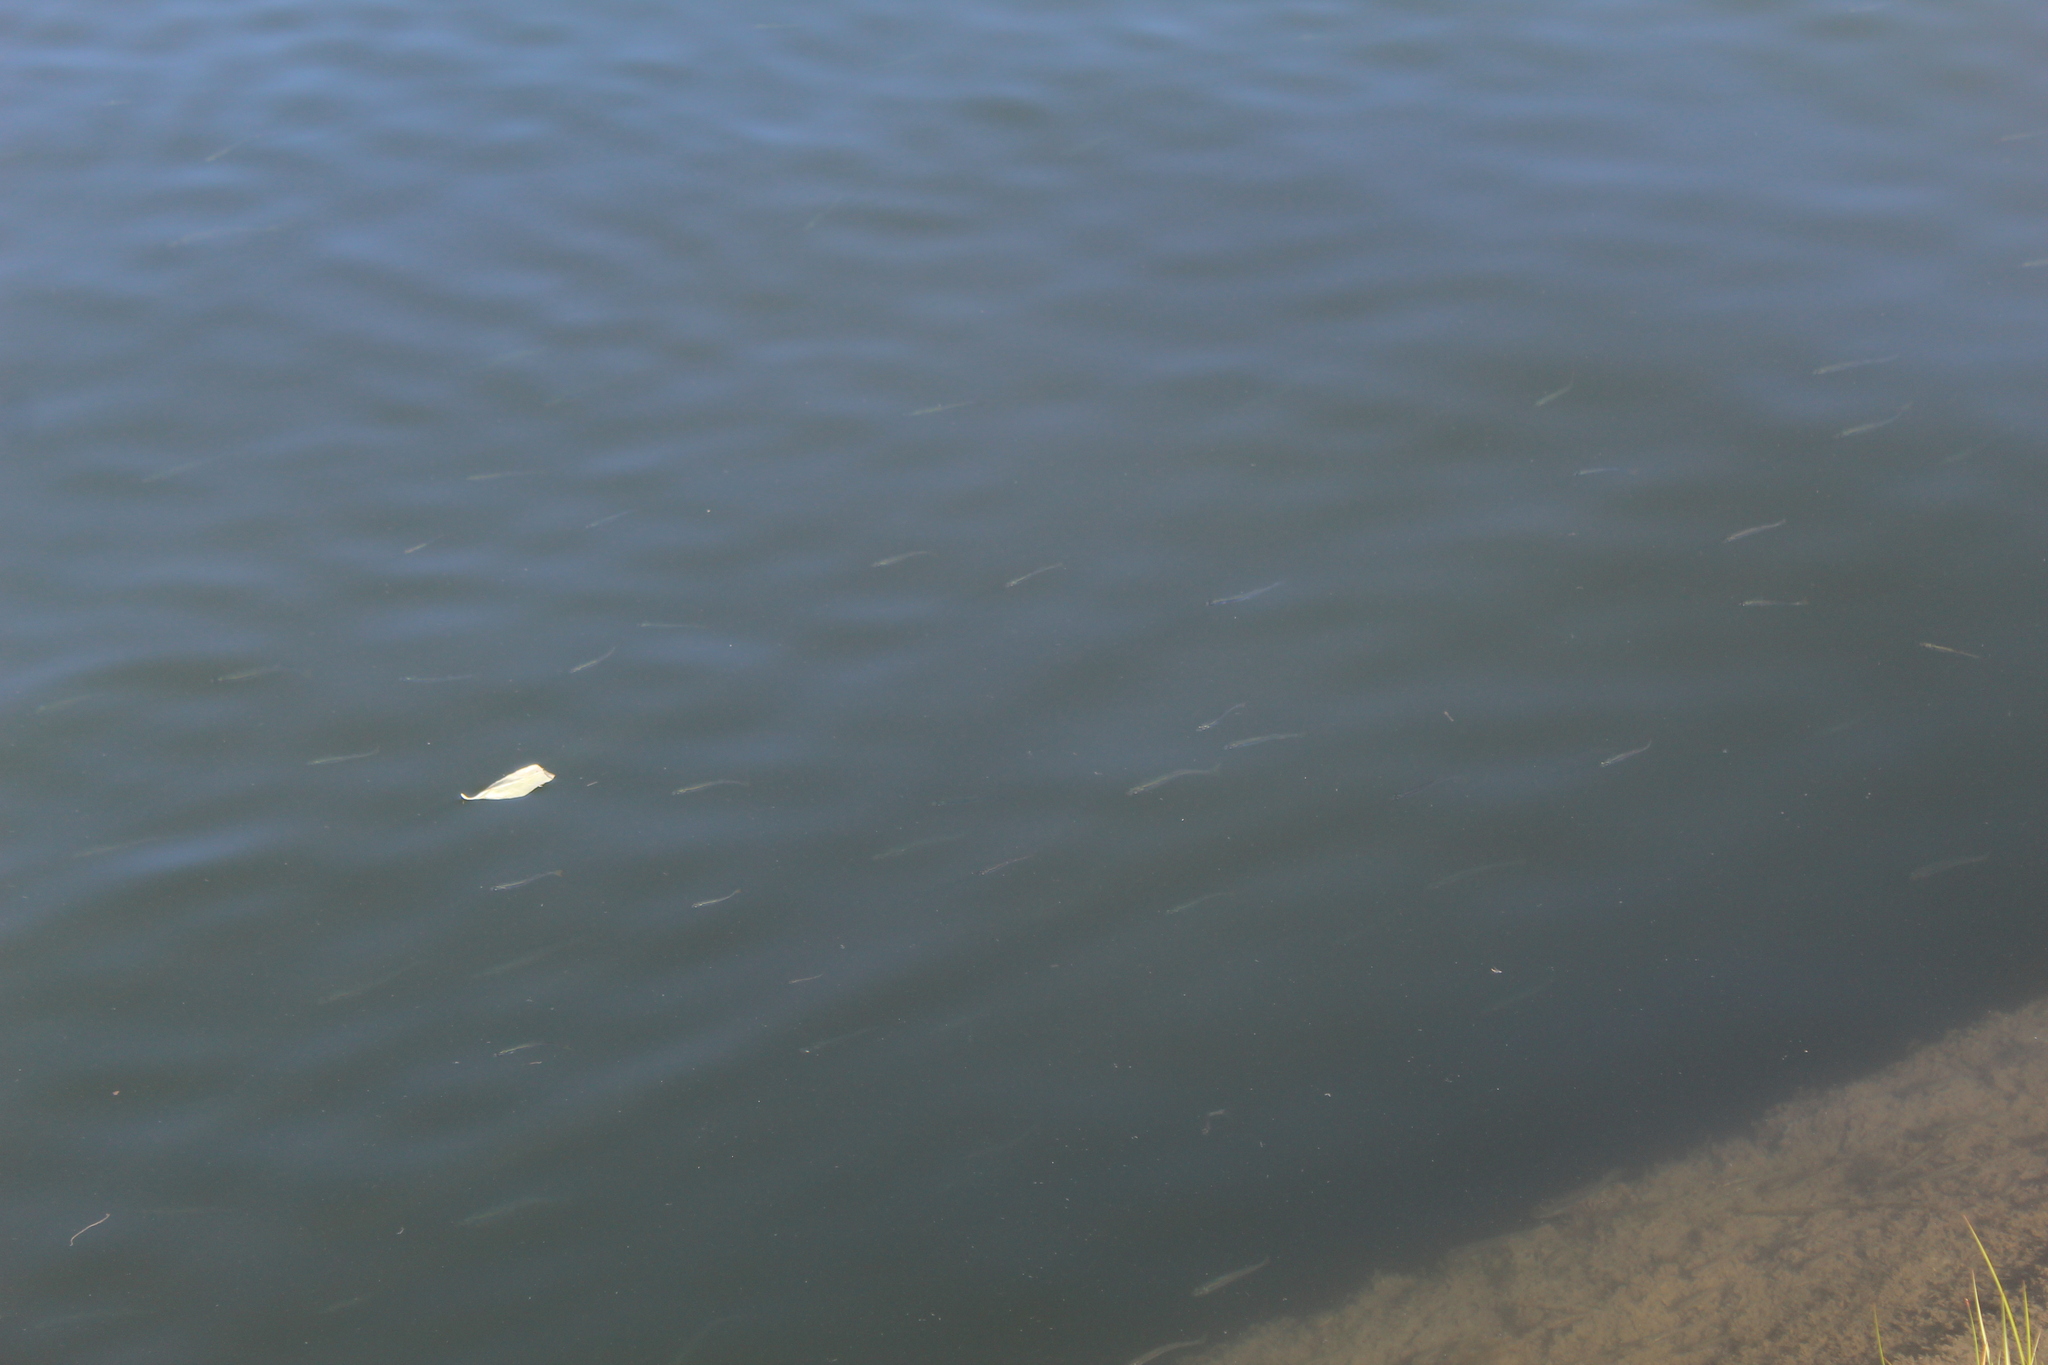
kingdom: Animalia
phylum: Chordata
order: Atheriniformes
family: Atherinopsidae
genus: Menidia
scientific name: Menidia menidia
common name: Atlantic silverside
